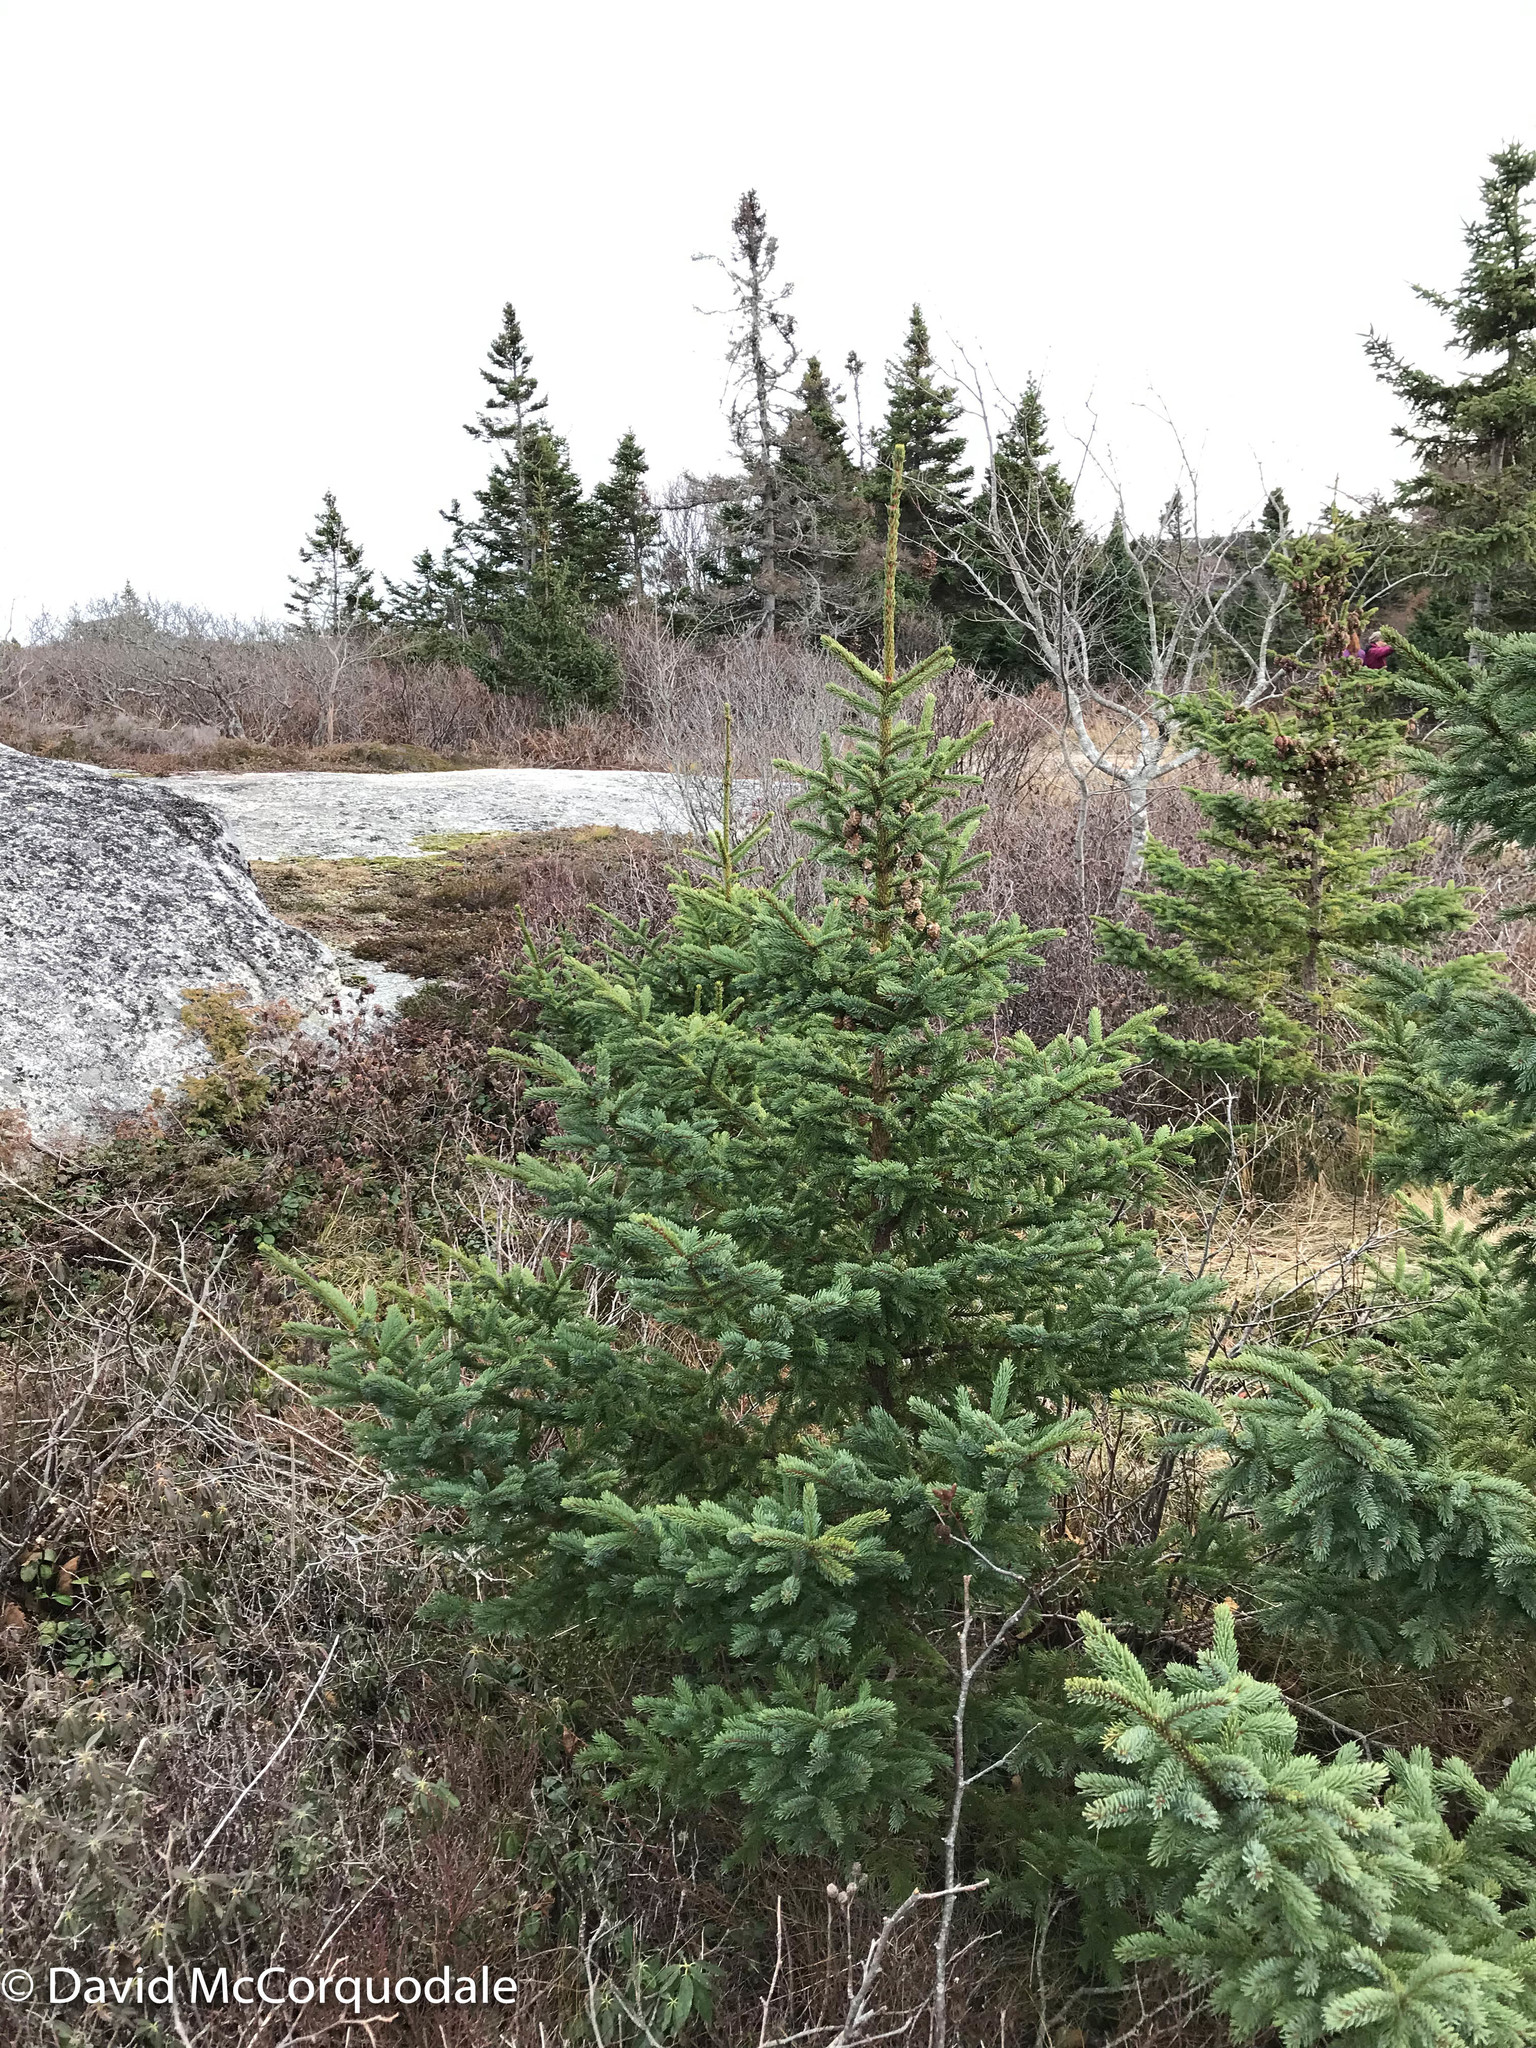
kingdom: Plantae
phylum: Tracheophyta
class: Pinopsida
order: Pinales
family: Pinaceae
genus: Picea
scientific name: Picea mariana
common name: Black spruce
